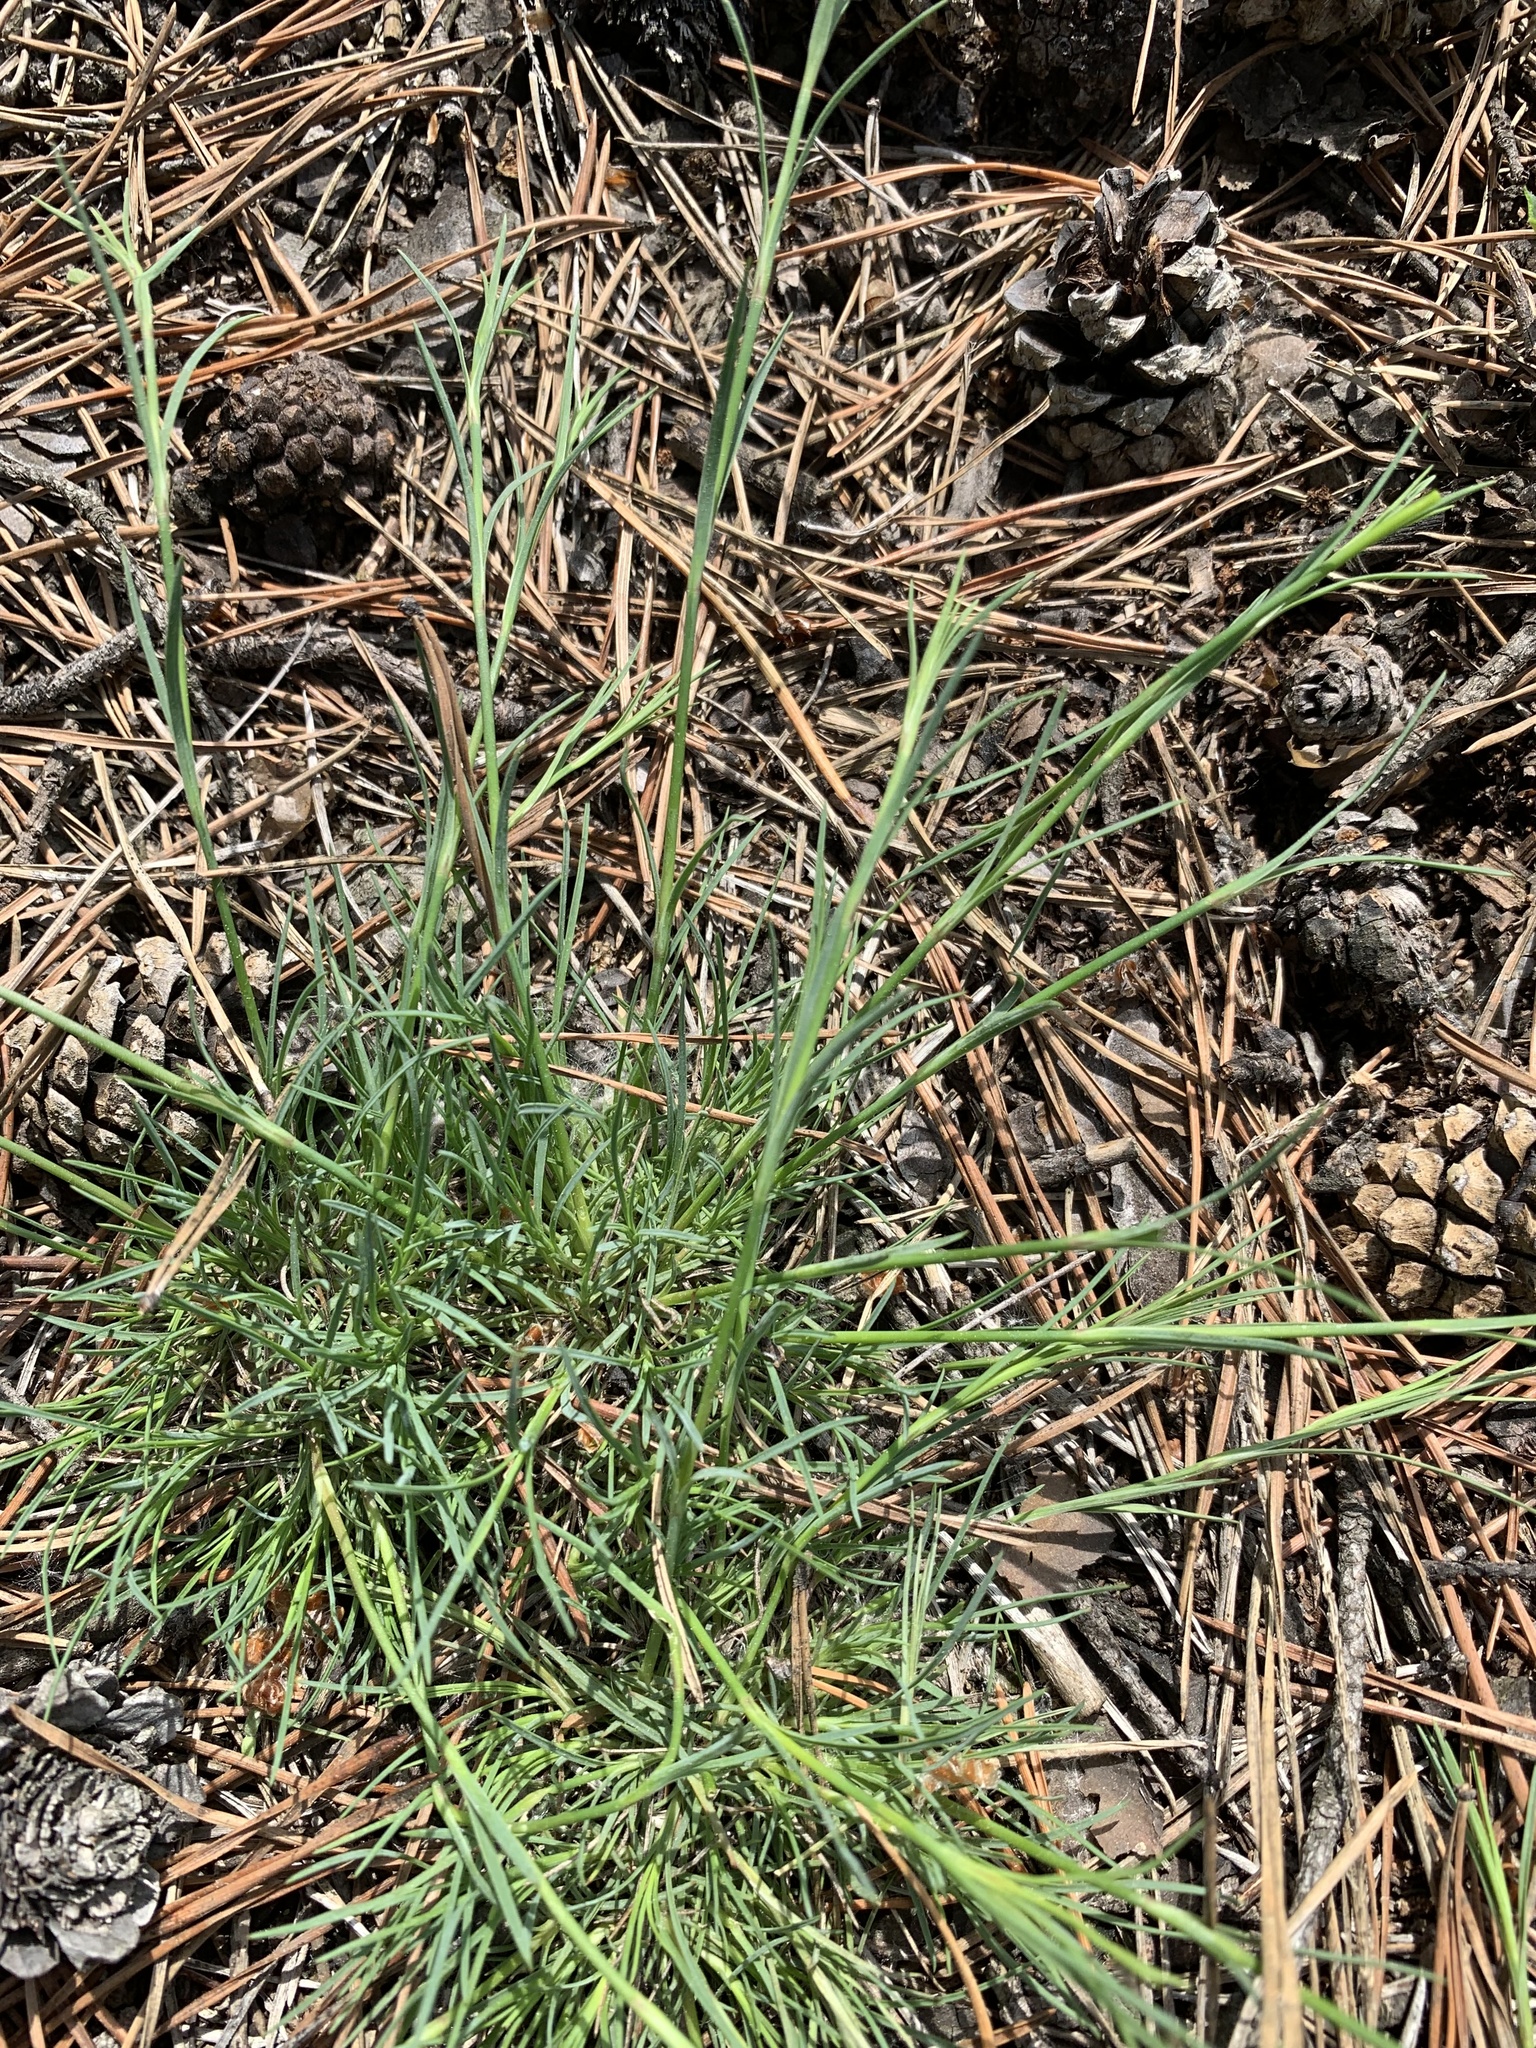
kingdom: Plantae
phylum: Tracheophyta
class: Magnoliopsida
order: Caryophyllales
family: Caryophyllaceae
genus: Dianthus
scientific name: Dianthus arenarius
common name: Stone pink
